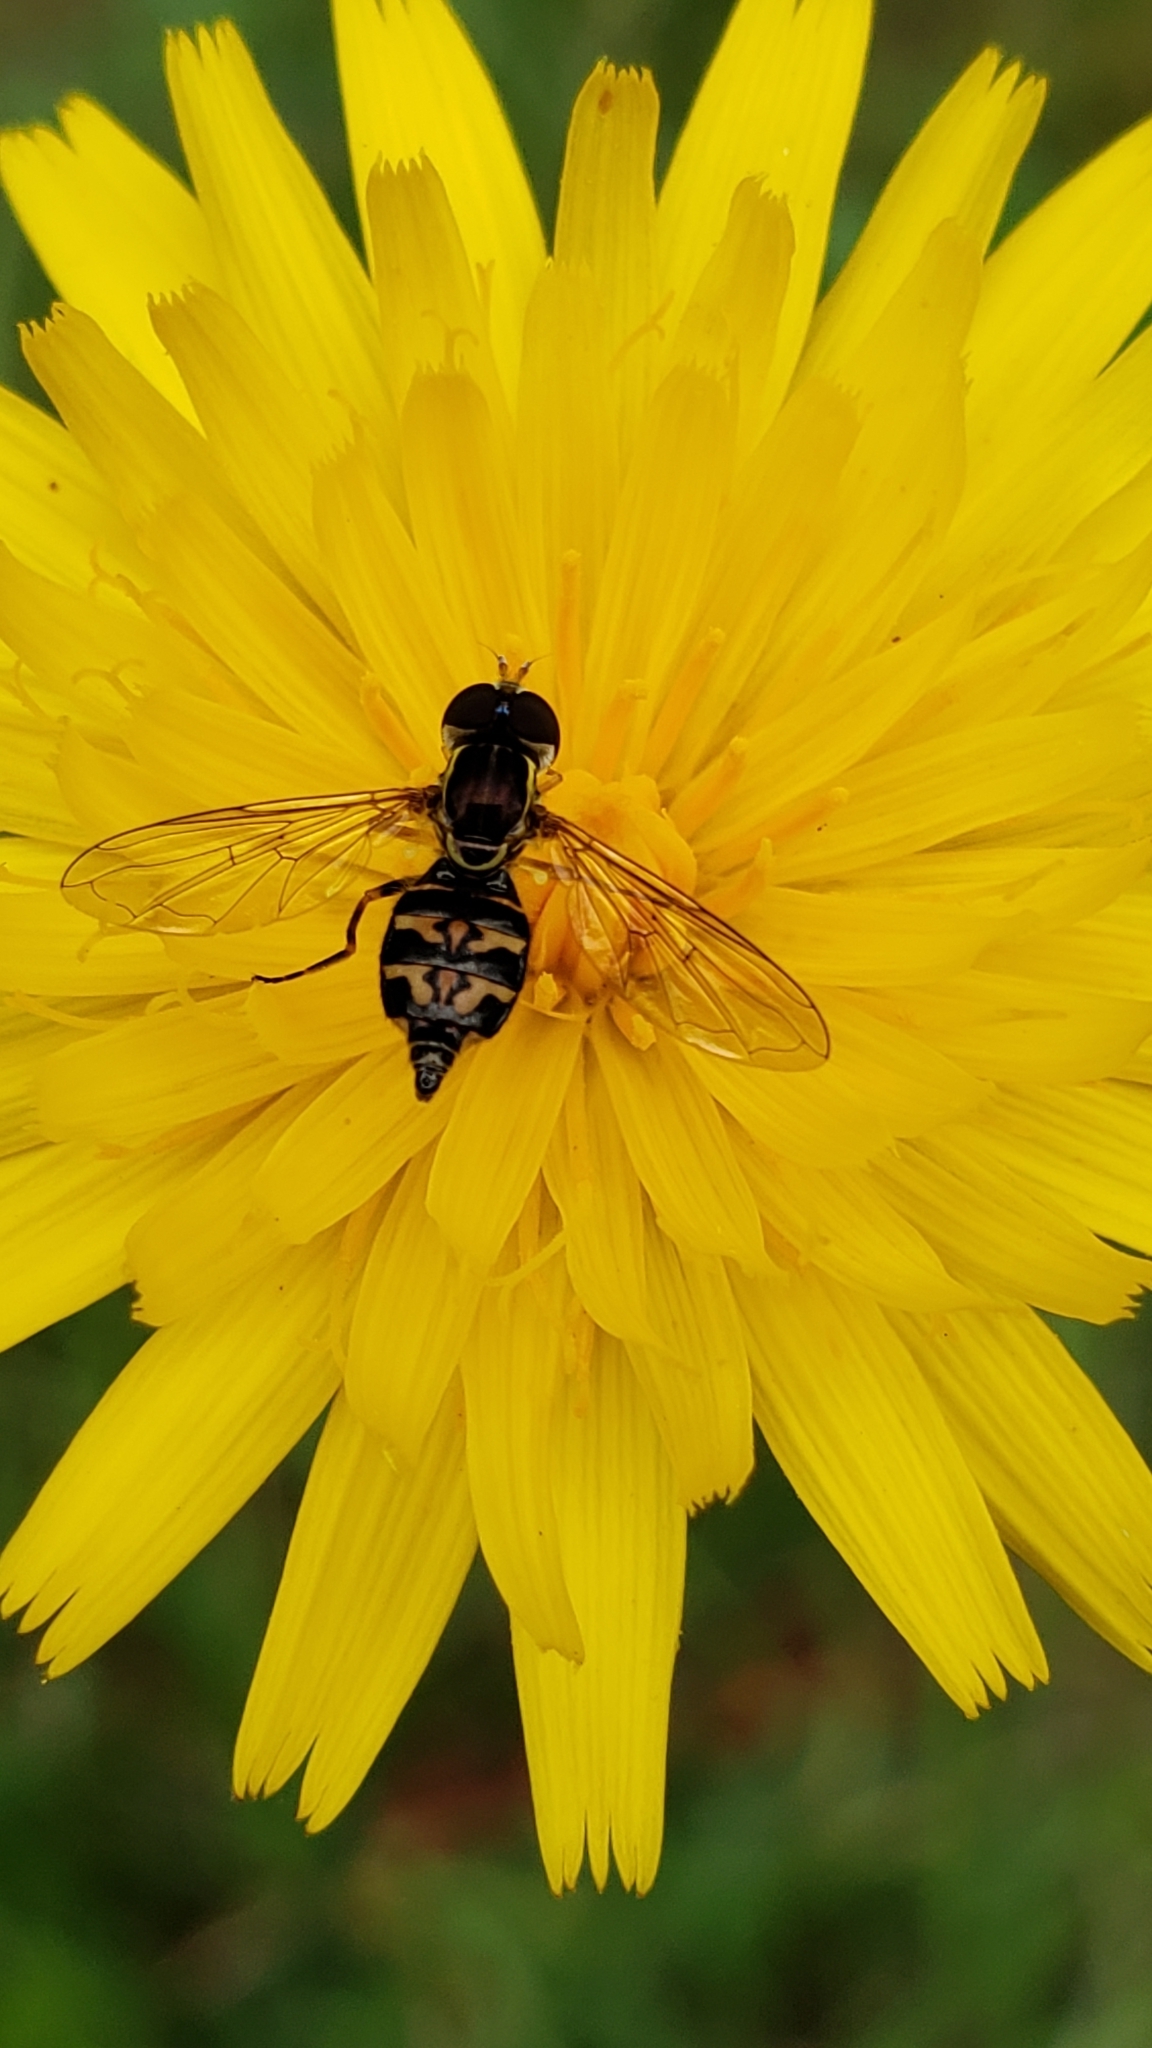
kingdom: Animalia
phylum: Arthropoda
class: Insecta
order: Diptera
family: Syrphidae
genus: Toxomerus
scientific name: Toxomerus occidentalis
